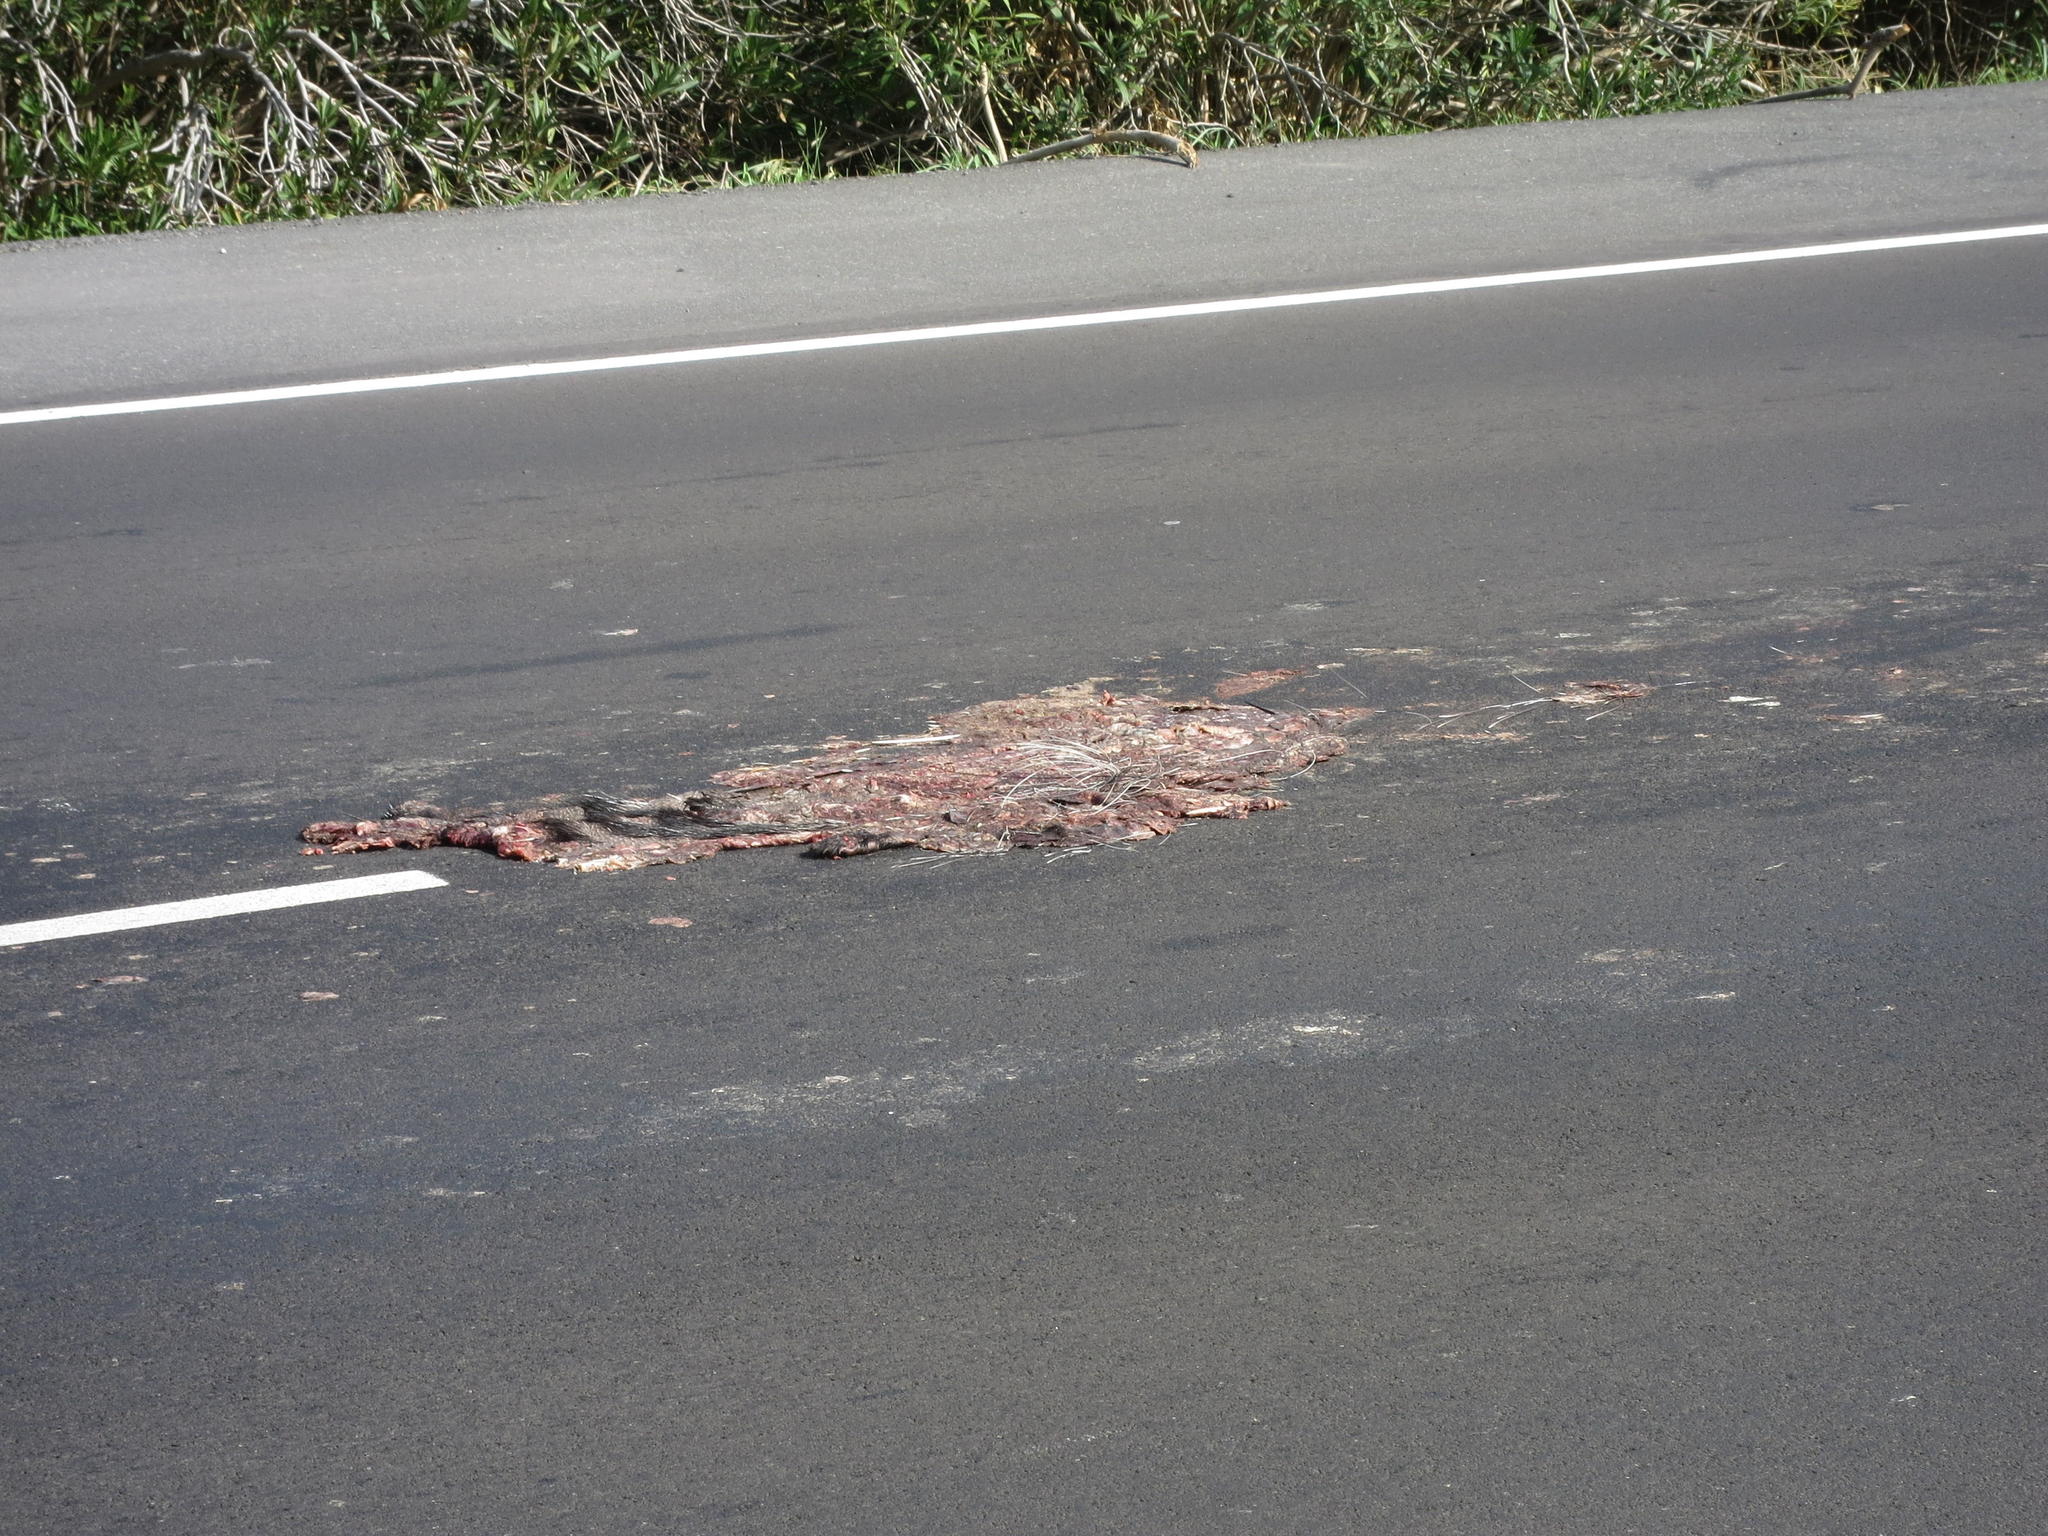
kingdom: Animalia
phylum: Chordata
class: Mammalia
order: Rodentia
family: Hystricidae
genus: Hystrix
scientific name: Hystrix africaeaustralis
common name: Cape porcupine
